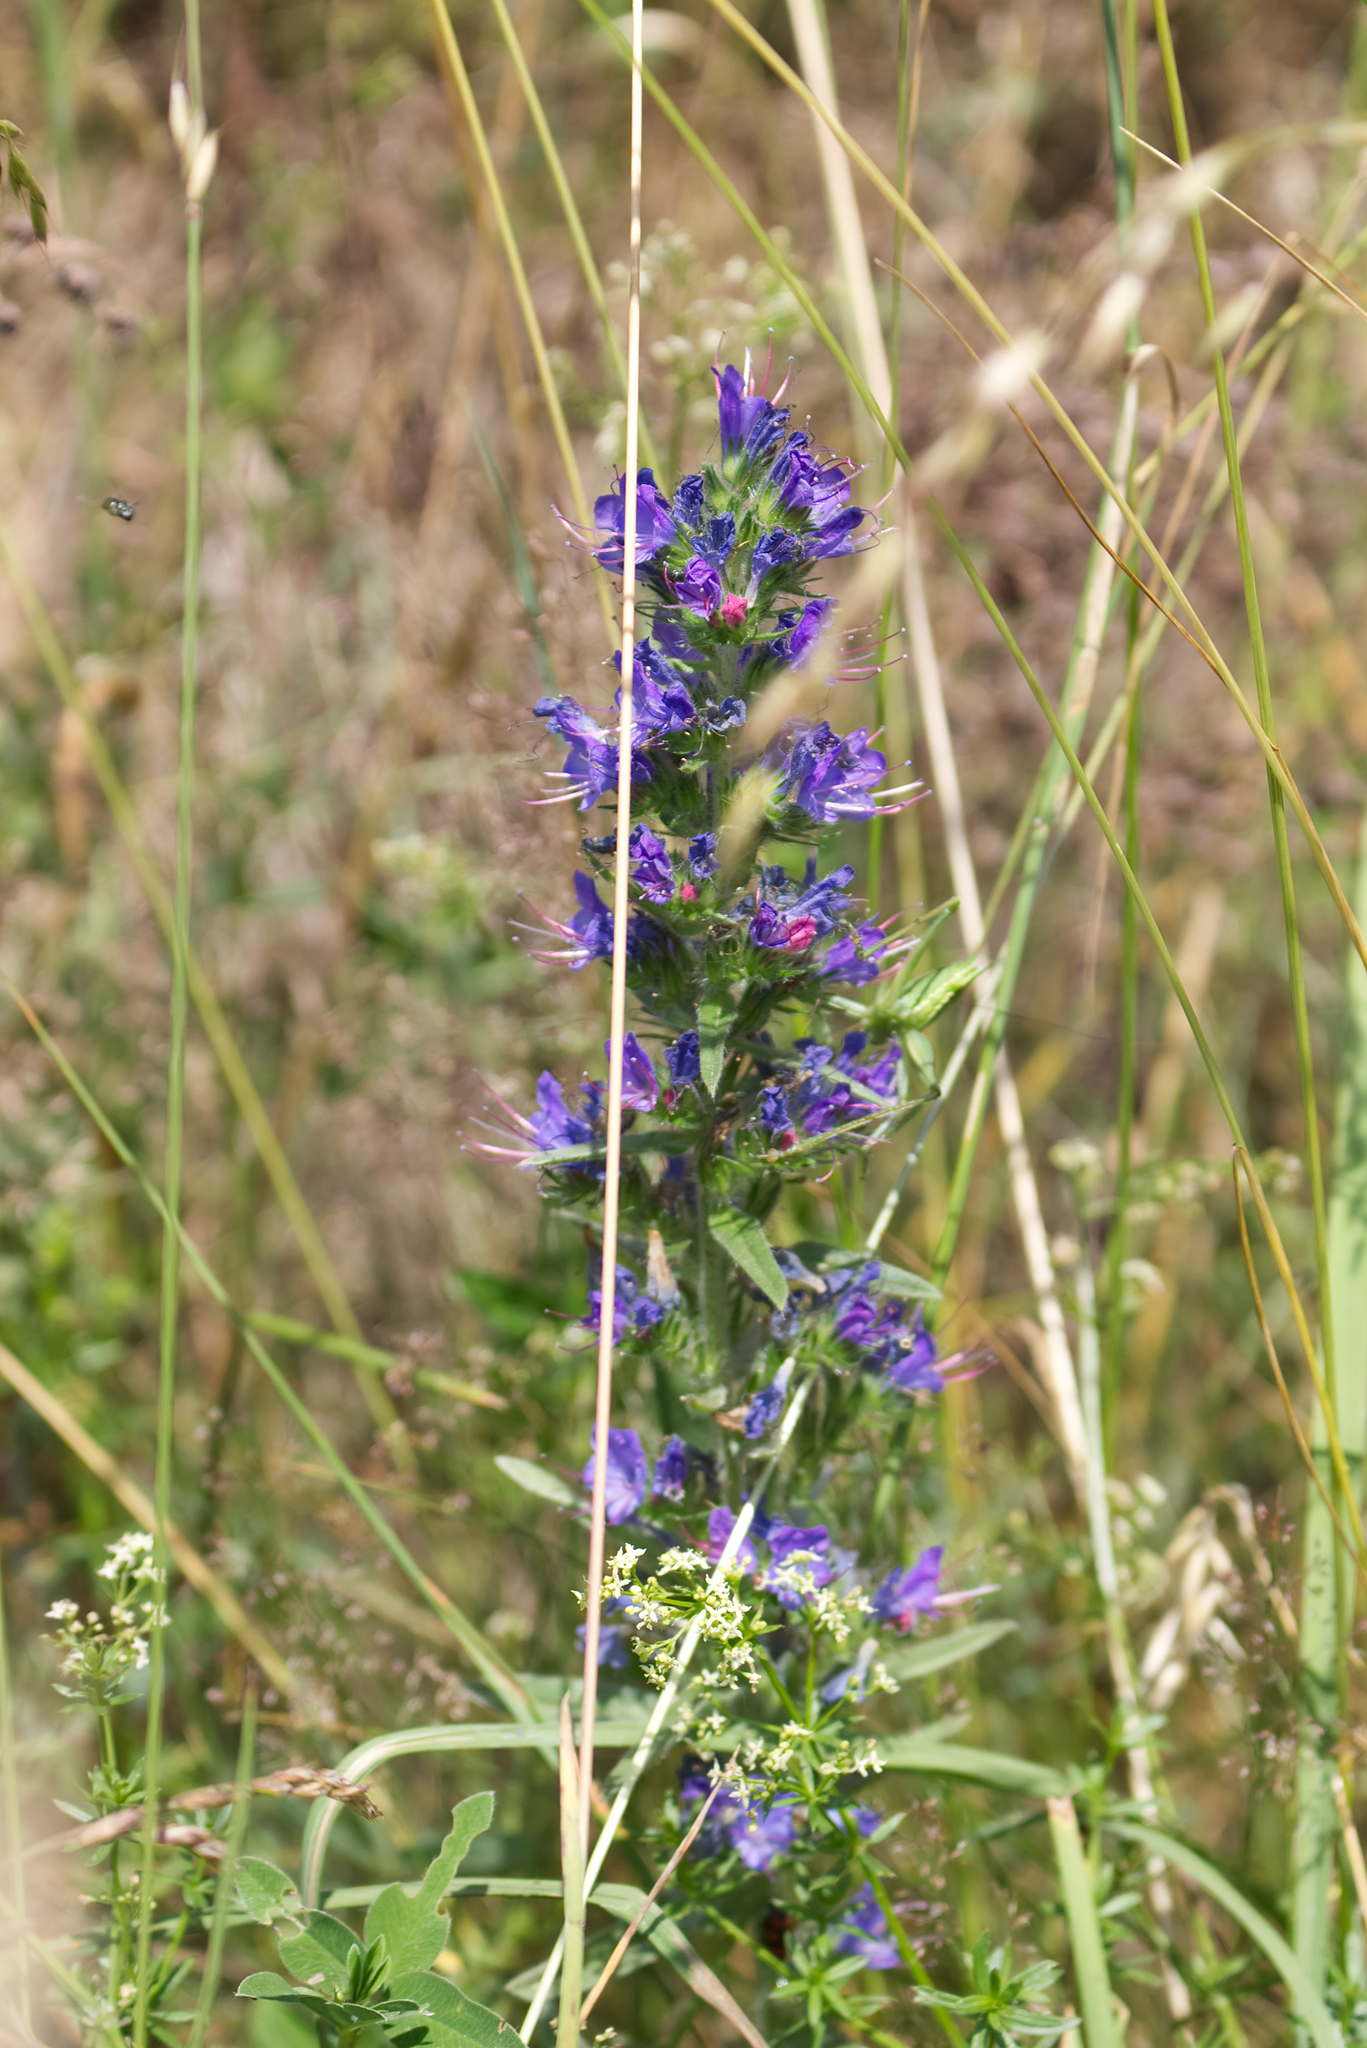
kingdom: Plantae
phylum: Tracheophyta
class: Magnoliopsida
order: Boraginales
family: Boraginaceae
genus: Echium
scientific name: Echium vulgare
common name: Common viper's bugloss
